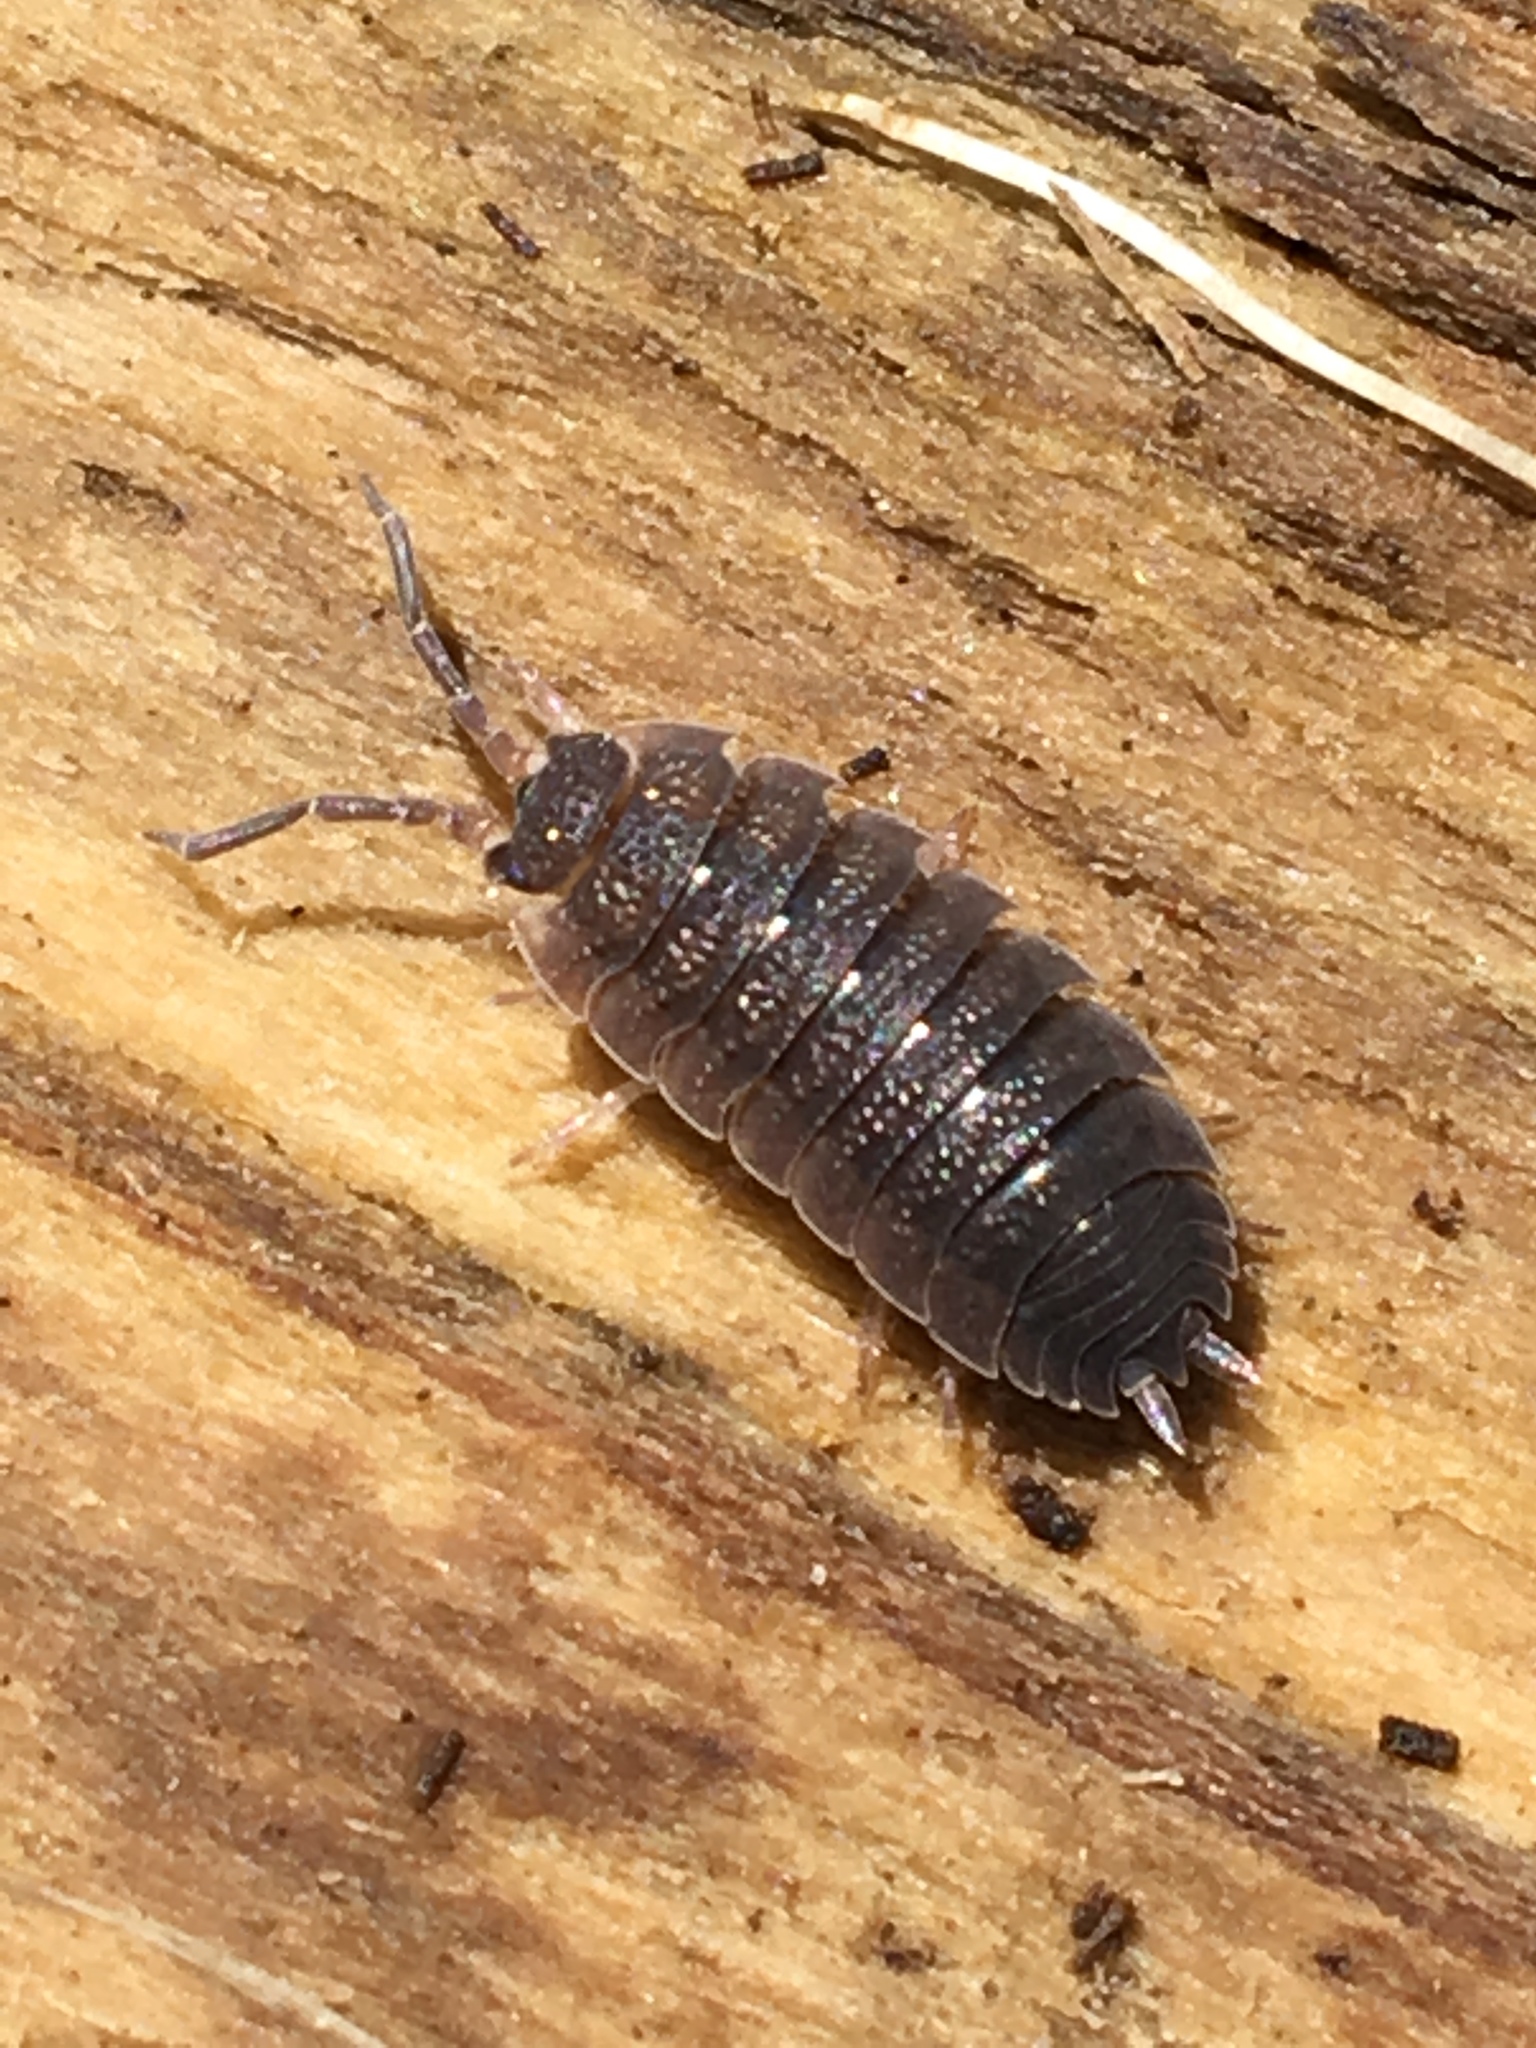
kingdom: Animalia
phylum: Arthropoda
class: Malacostraca
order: Isopoda
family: Porcellionidae
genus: Porcellio
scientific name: Porcellio scaber
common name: Common rough woodlouse
